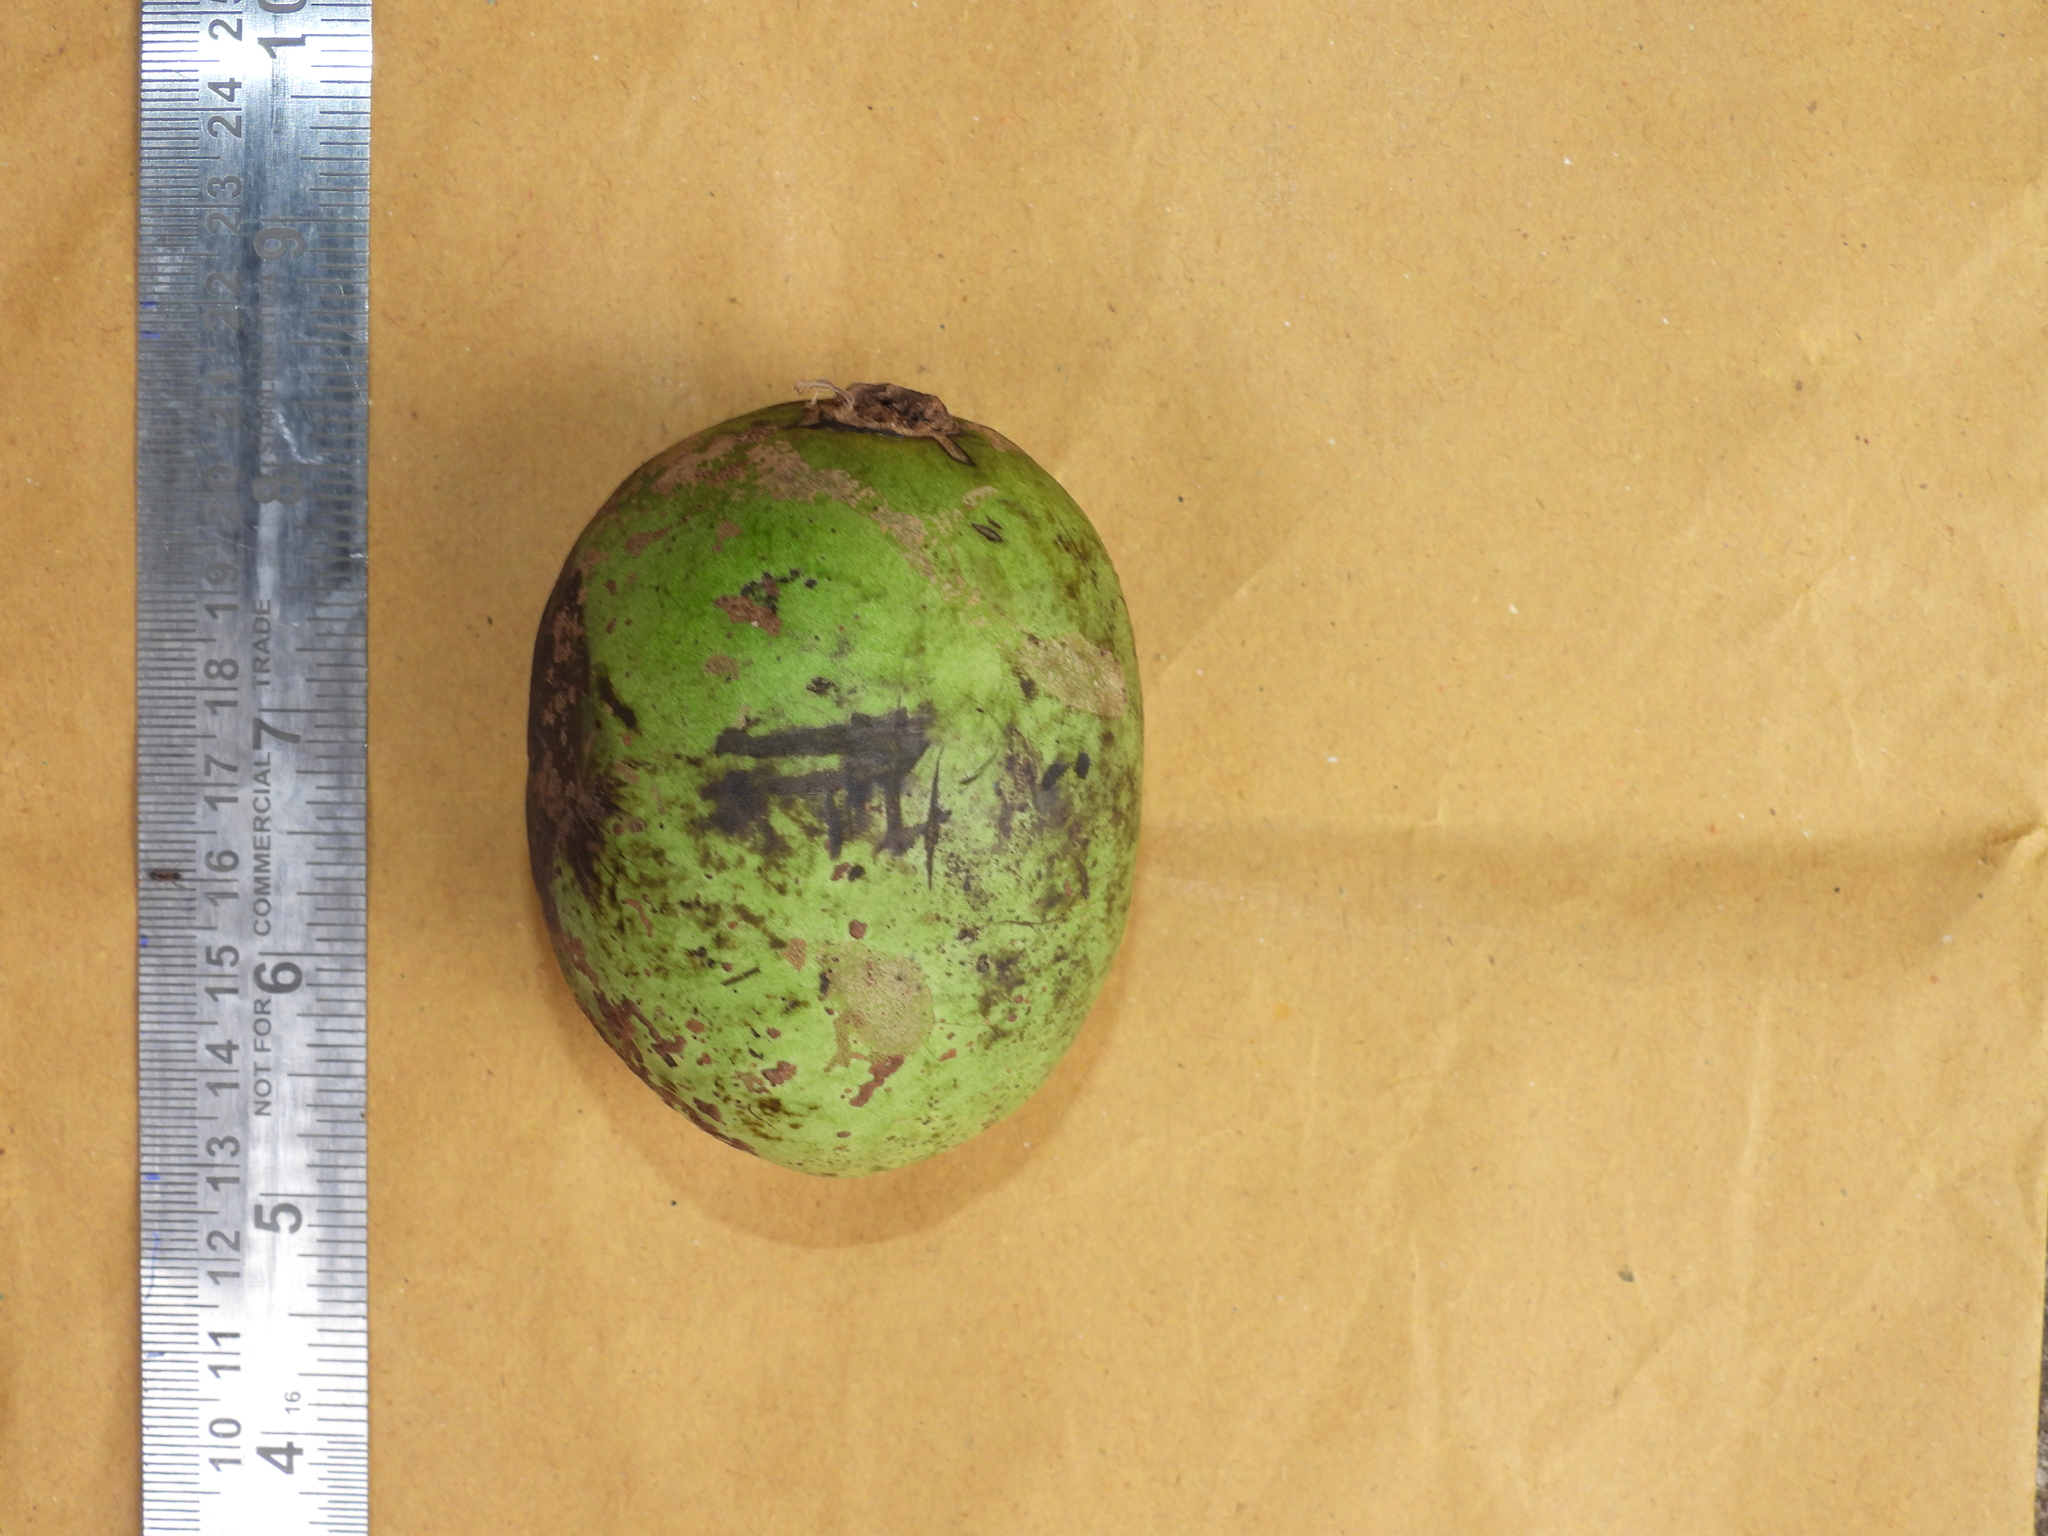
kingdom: Plantae
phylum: Tracheophyta
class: Magnoliopsida
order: Magnoliales
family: Annonaceae
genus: Cyathocalyx
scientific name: Cyathocalyx zeylanicus
